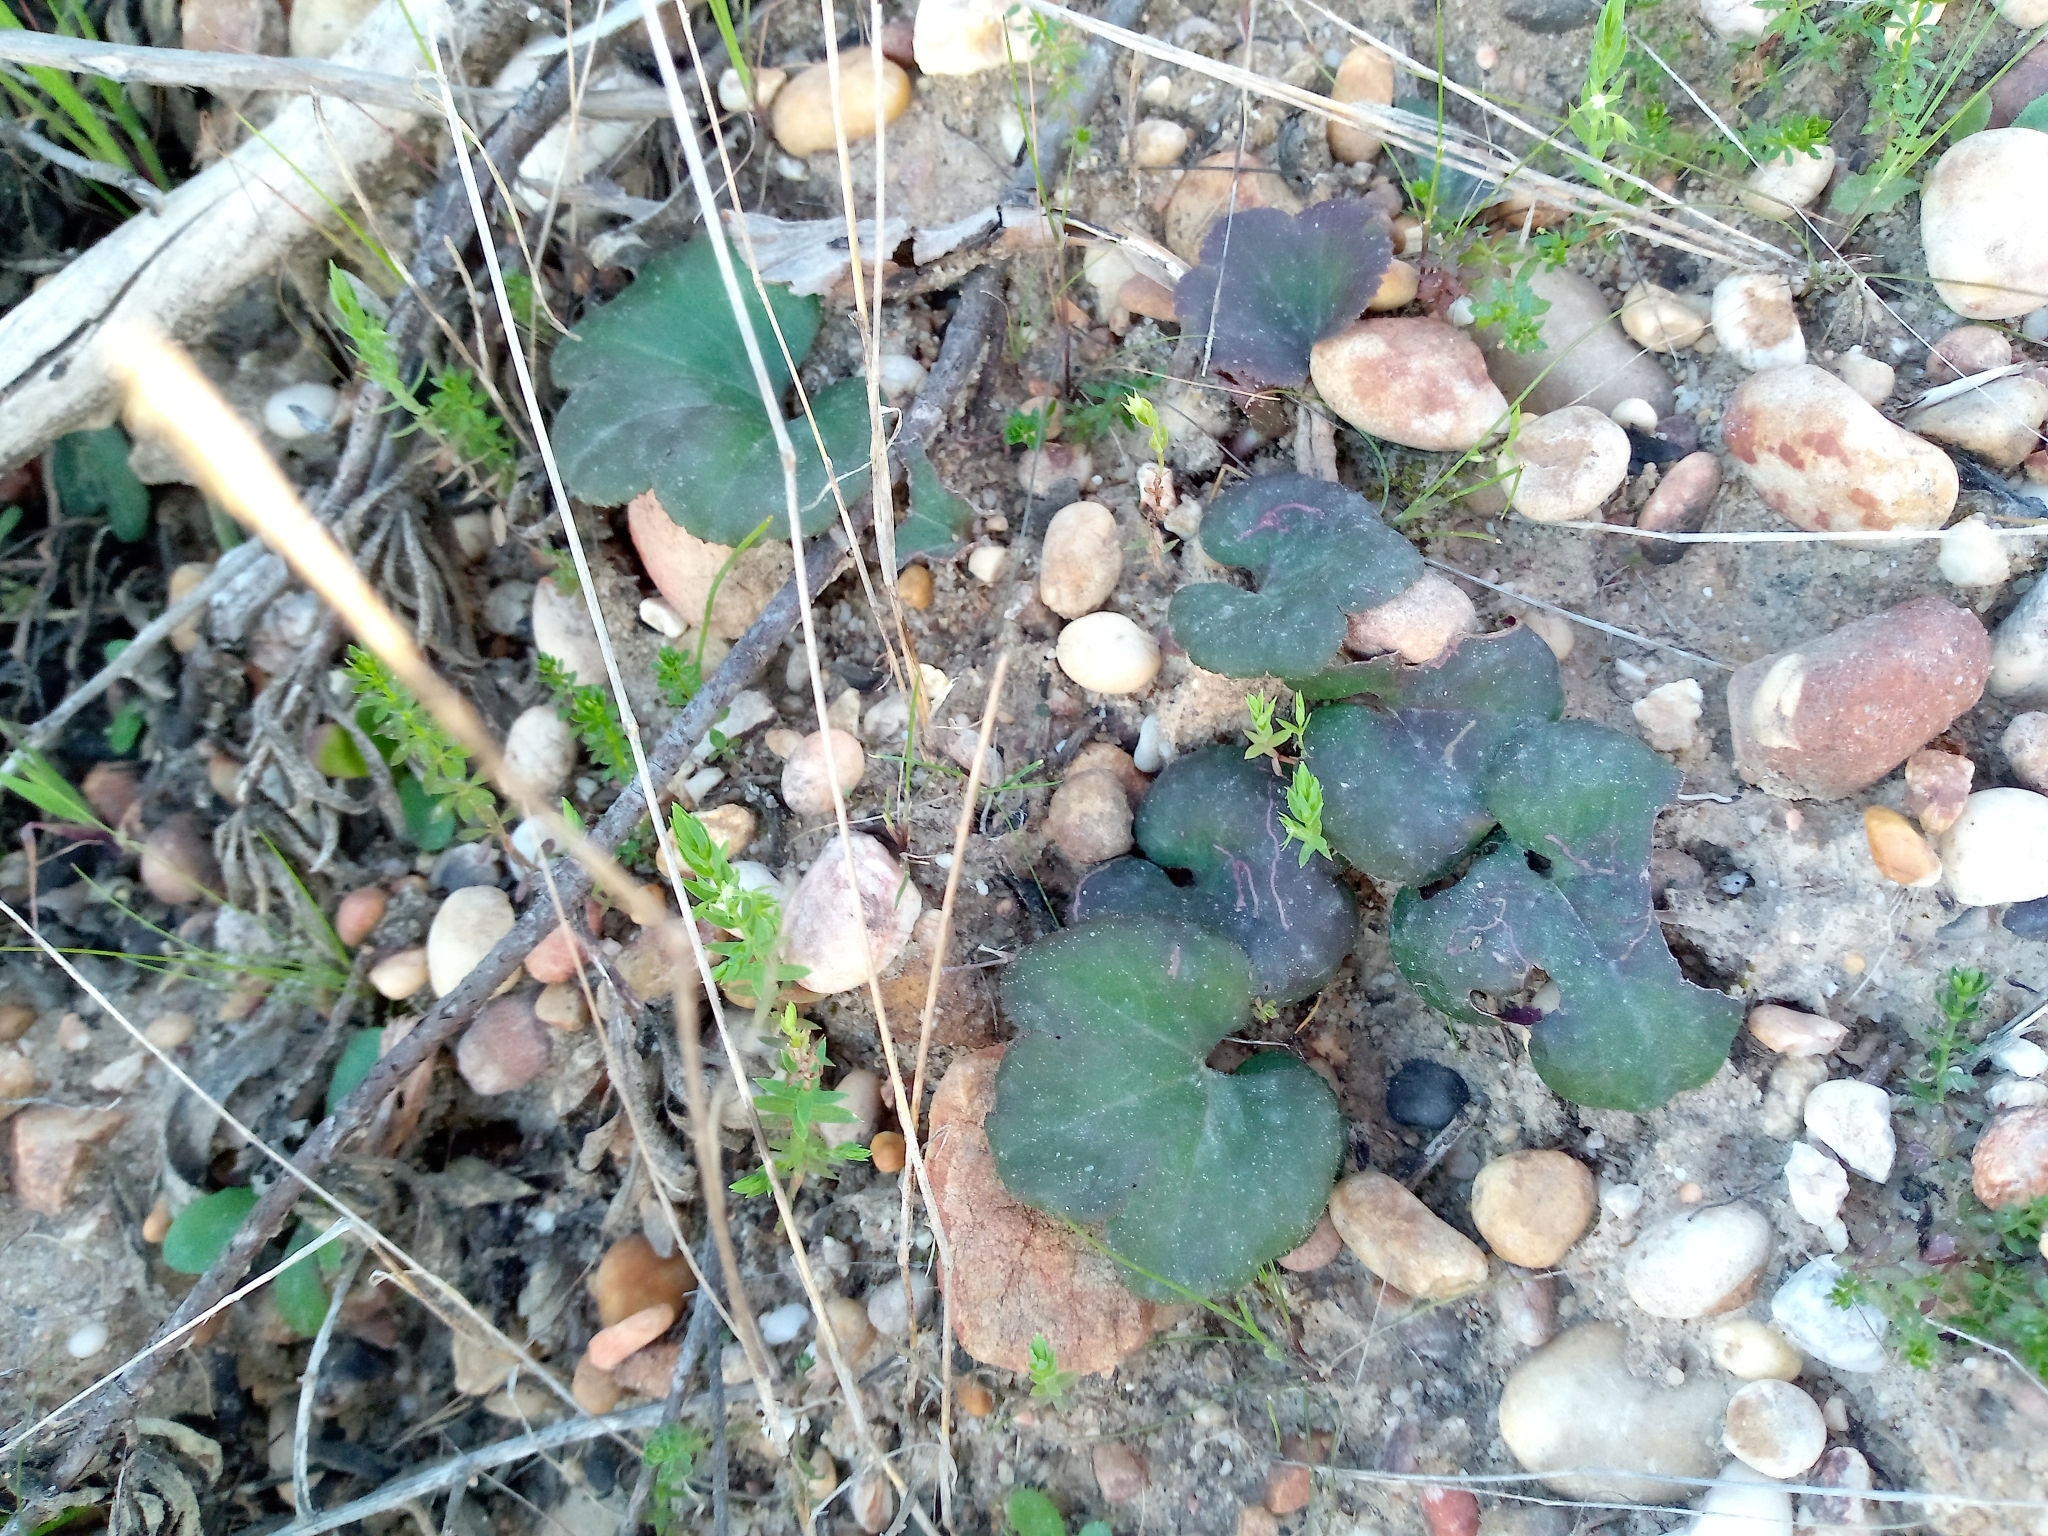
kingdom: Plantae
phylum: Tracheophyta
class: Magnoliopsida
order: Ranunculales
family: Ranunculaceae
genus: Anemone
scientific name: Anemone palmata
